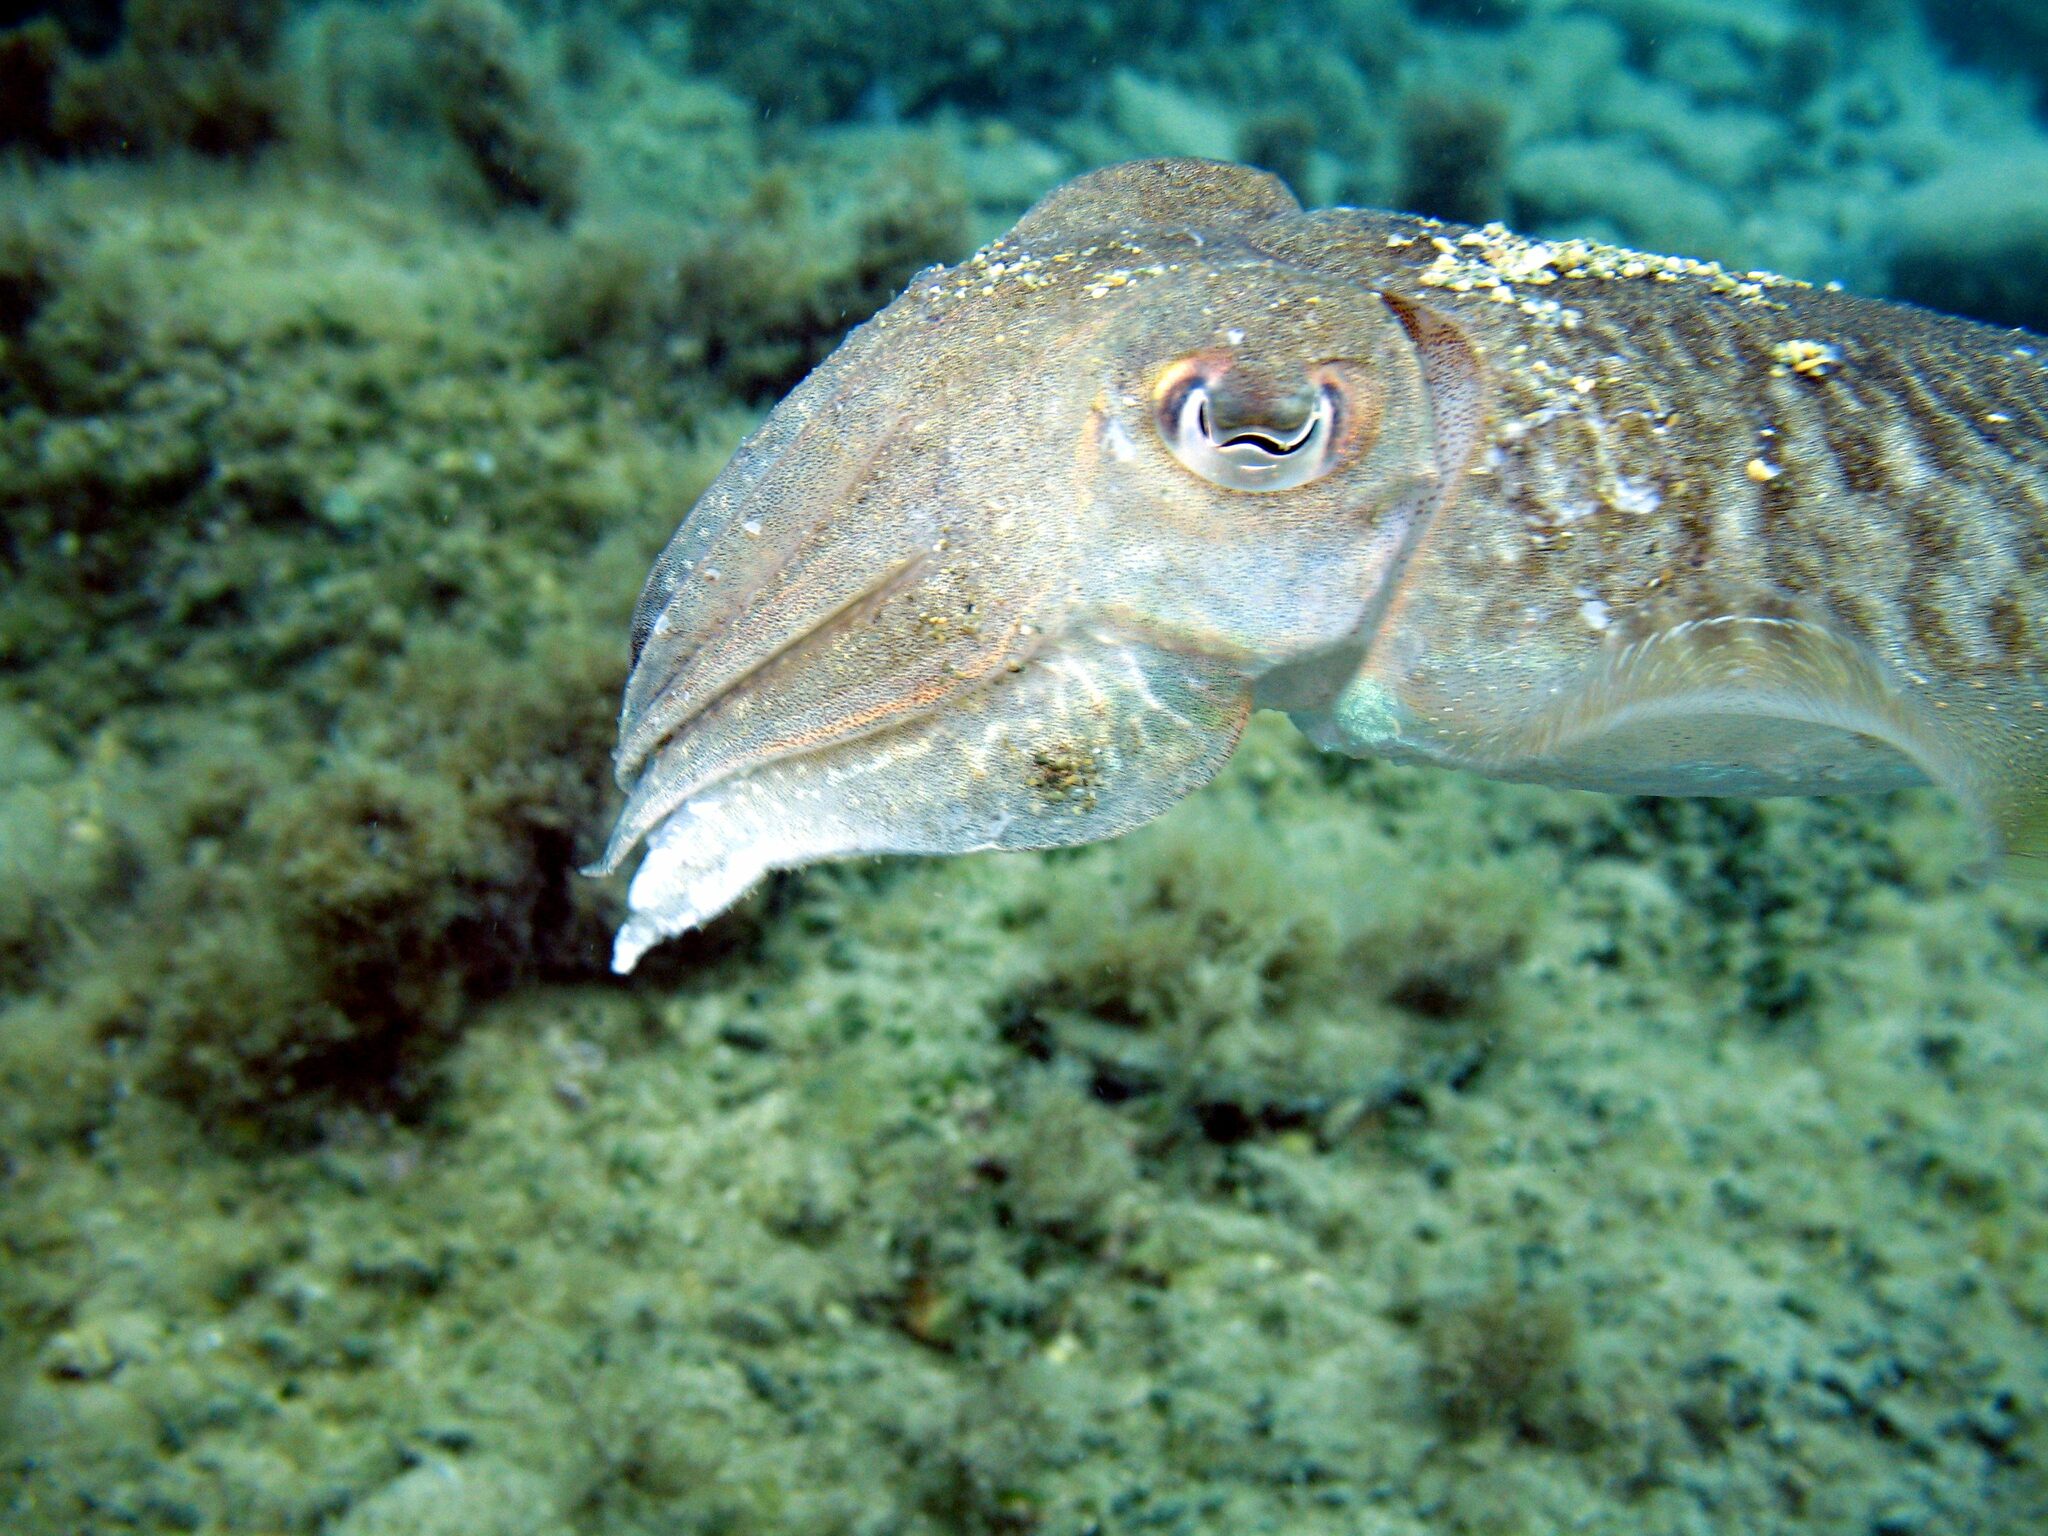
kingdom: Animalia
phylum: Mollusca
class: Cephalopoda
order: Sepiida
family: Sepiidae
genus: Sepia
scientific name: Sepia officinalis
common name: Common cuttlefish
